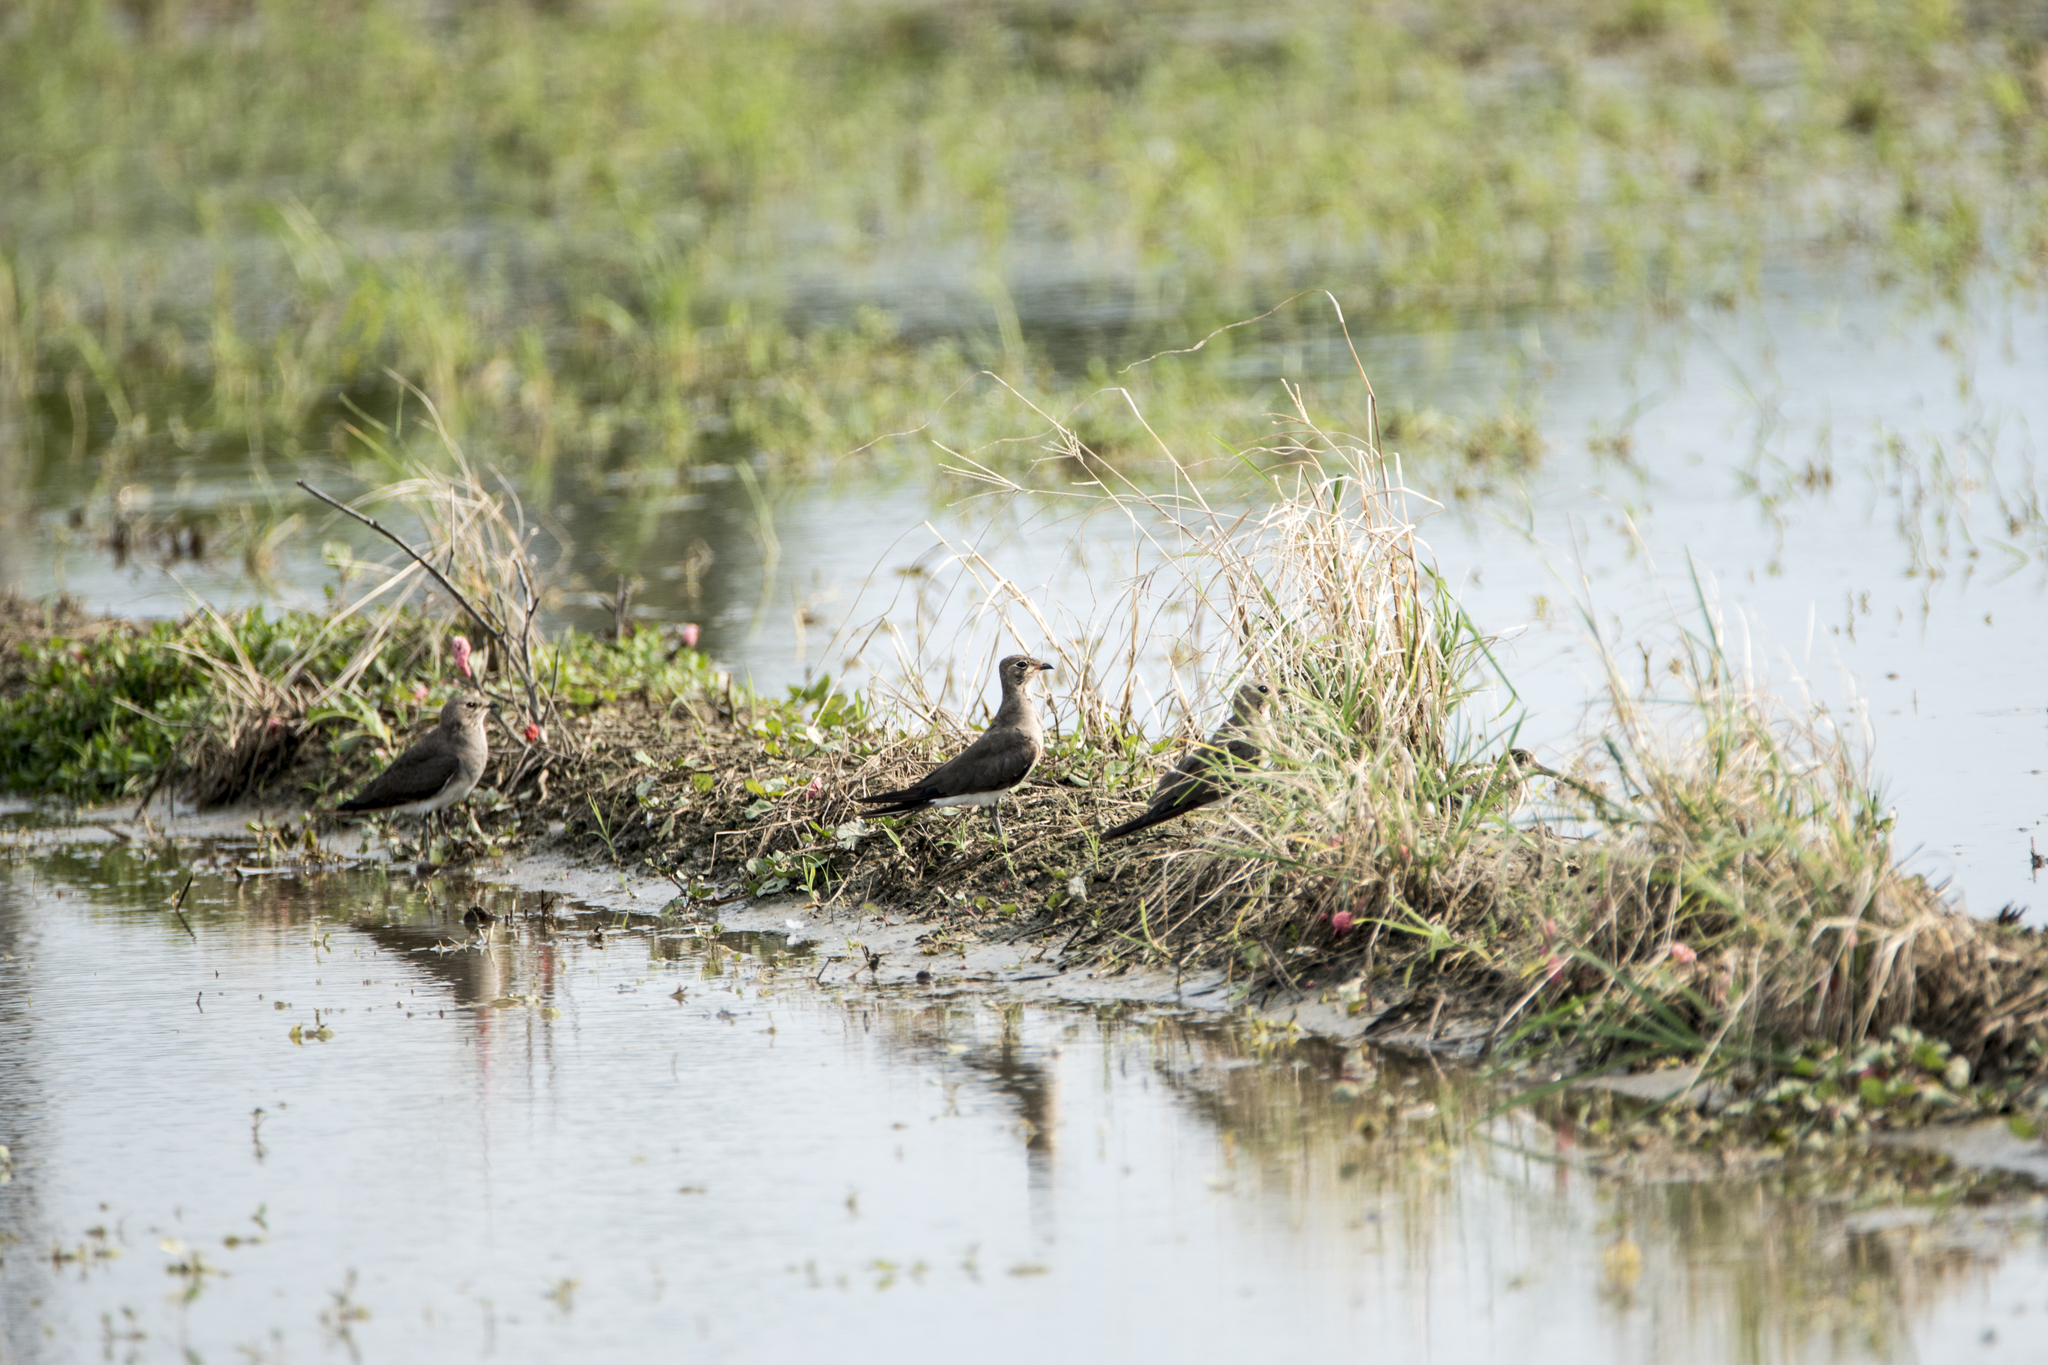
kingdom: Animalia
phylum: Chordata
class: Aves
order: Charadriiformes
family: Glareolidae
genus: Glareola
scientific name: Glareola maldivarum
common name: Oriental pratincole
